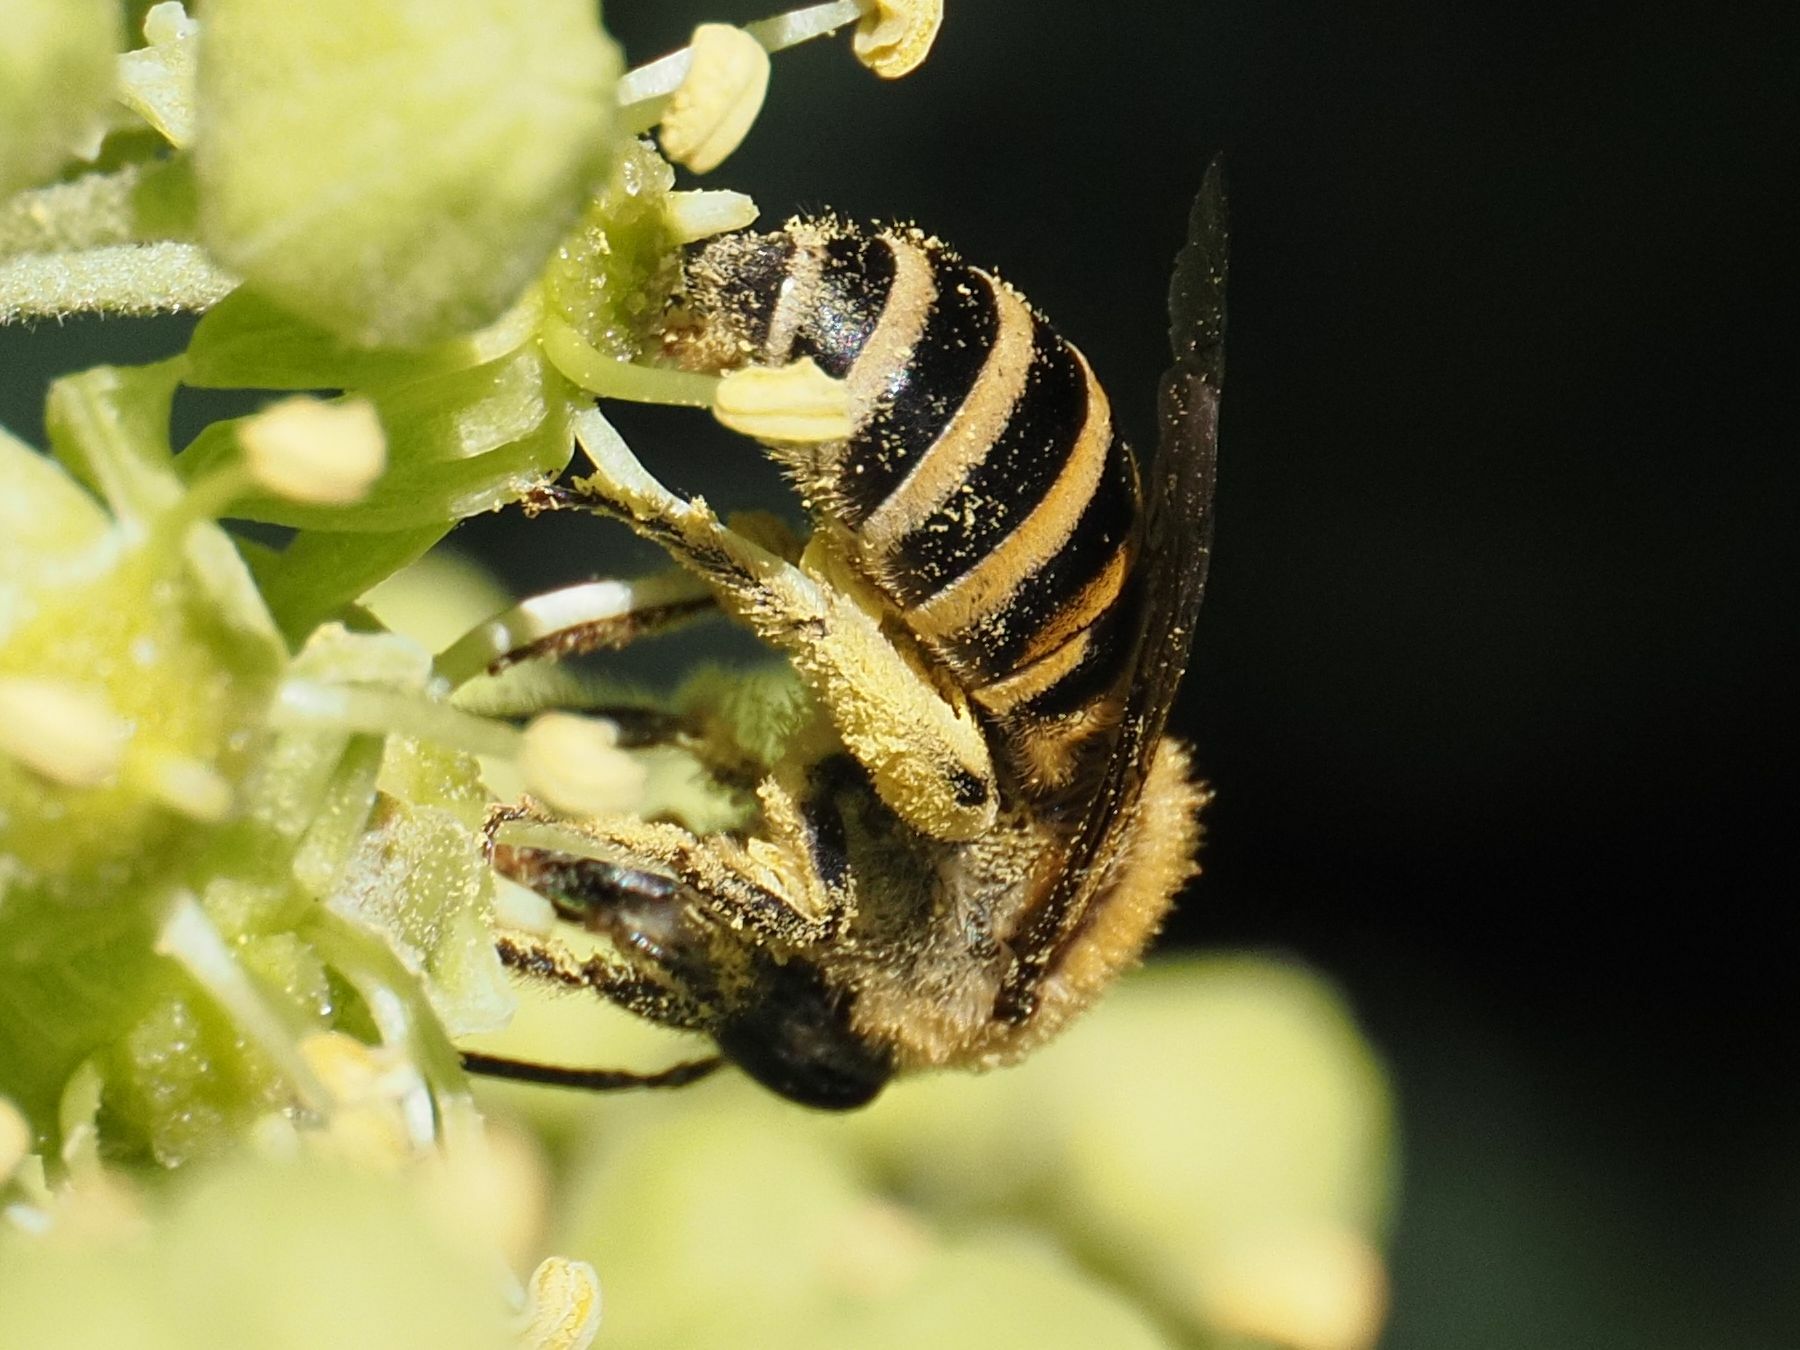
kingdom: Animalia
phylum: Arthropoda
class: Insecta
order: Hymenoptera
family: Colletidae
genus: Colletes
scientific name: Colletes hederae
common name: Ivy bee
